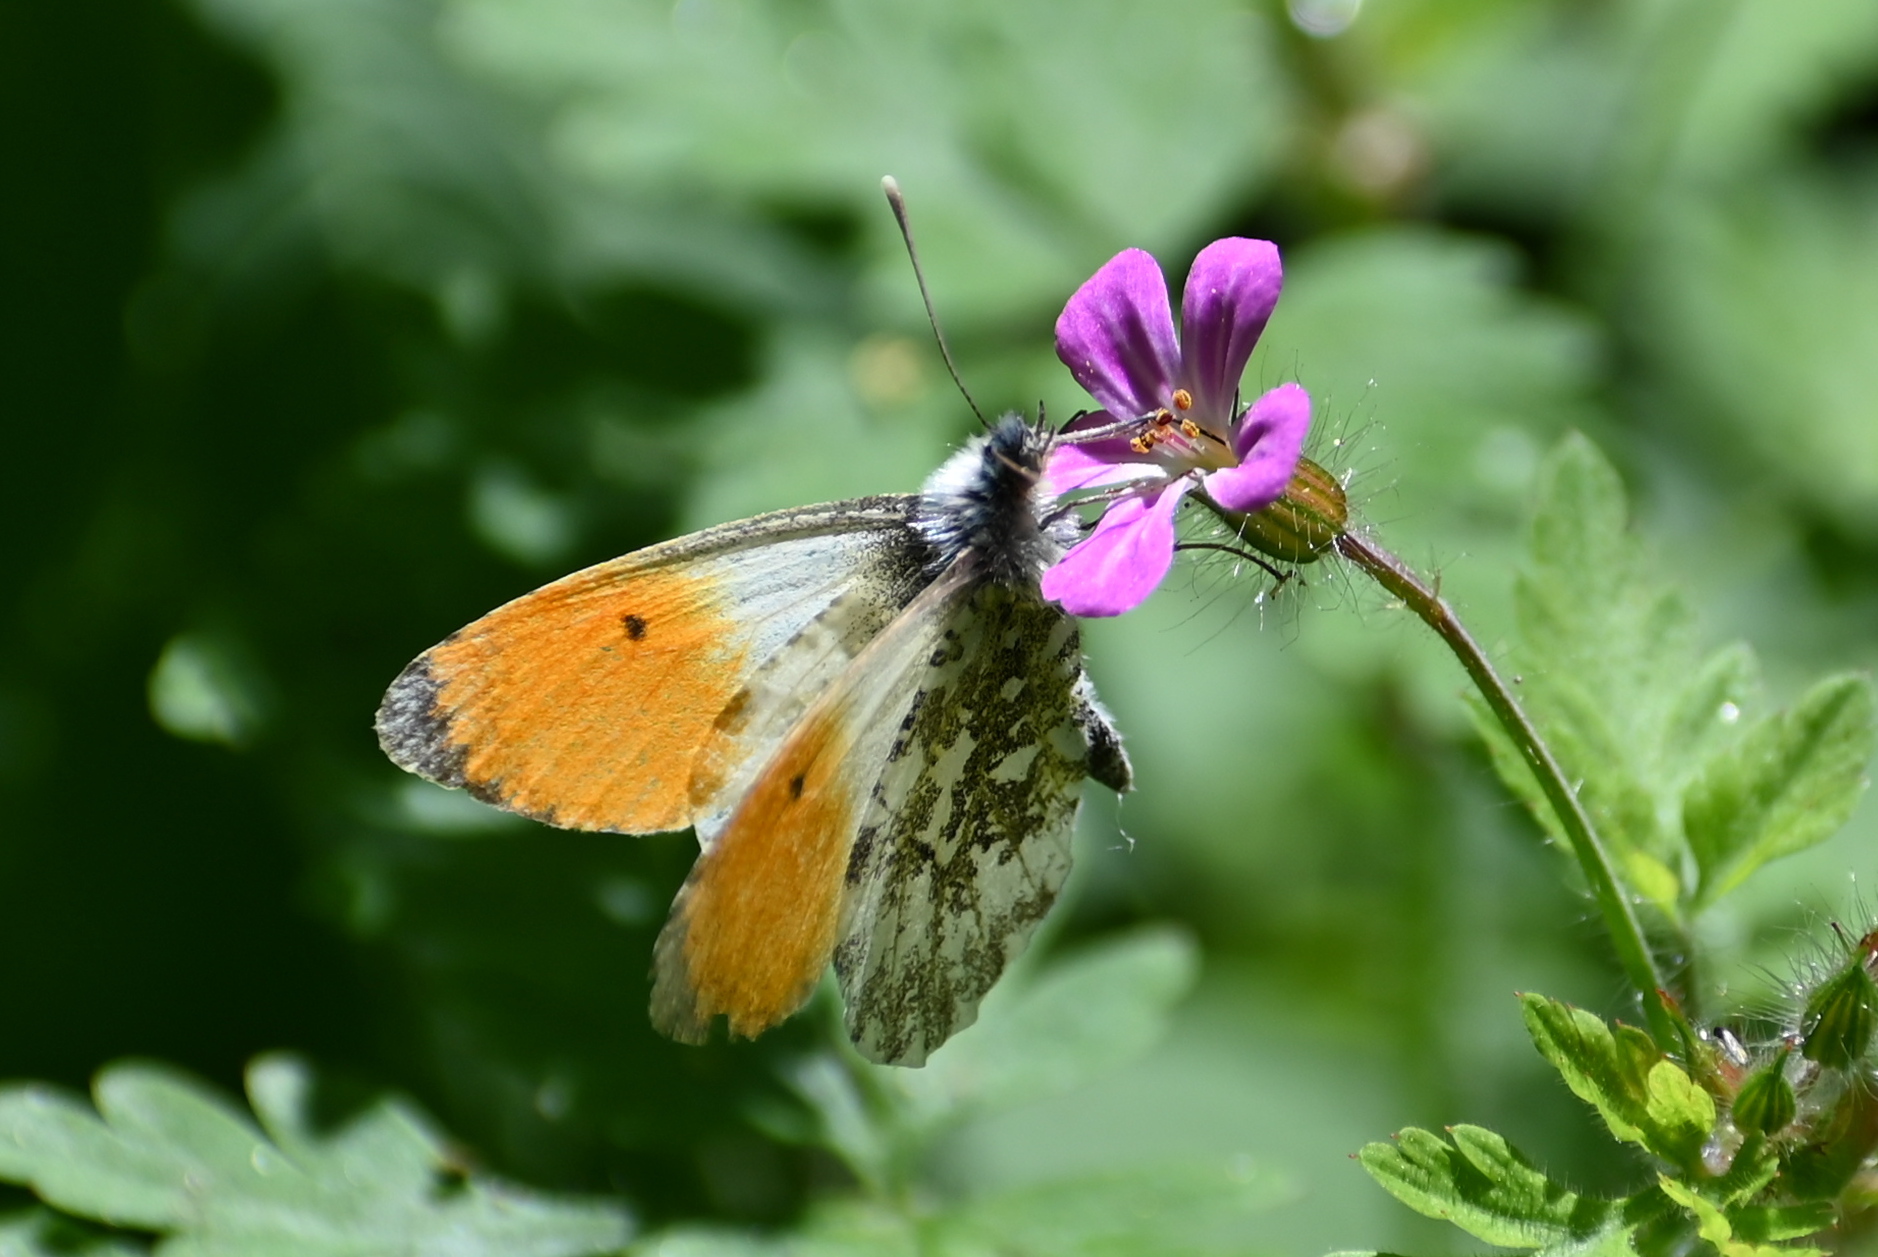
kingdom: Animalia
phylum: Arthropoda
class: Insecta
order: Lepidoptera
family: Pieridae
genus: Anthocharis
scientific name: Anthocharis cardamines
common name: Orange-tip
